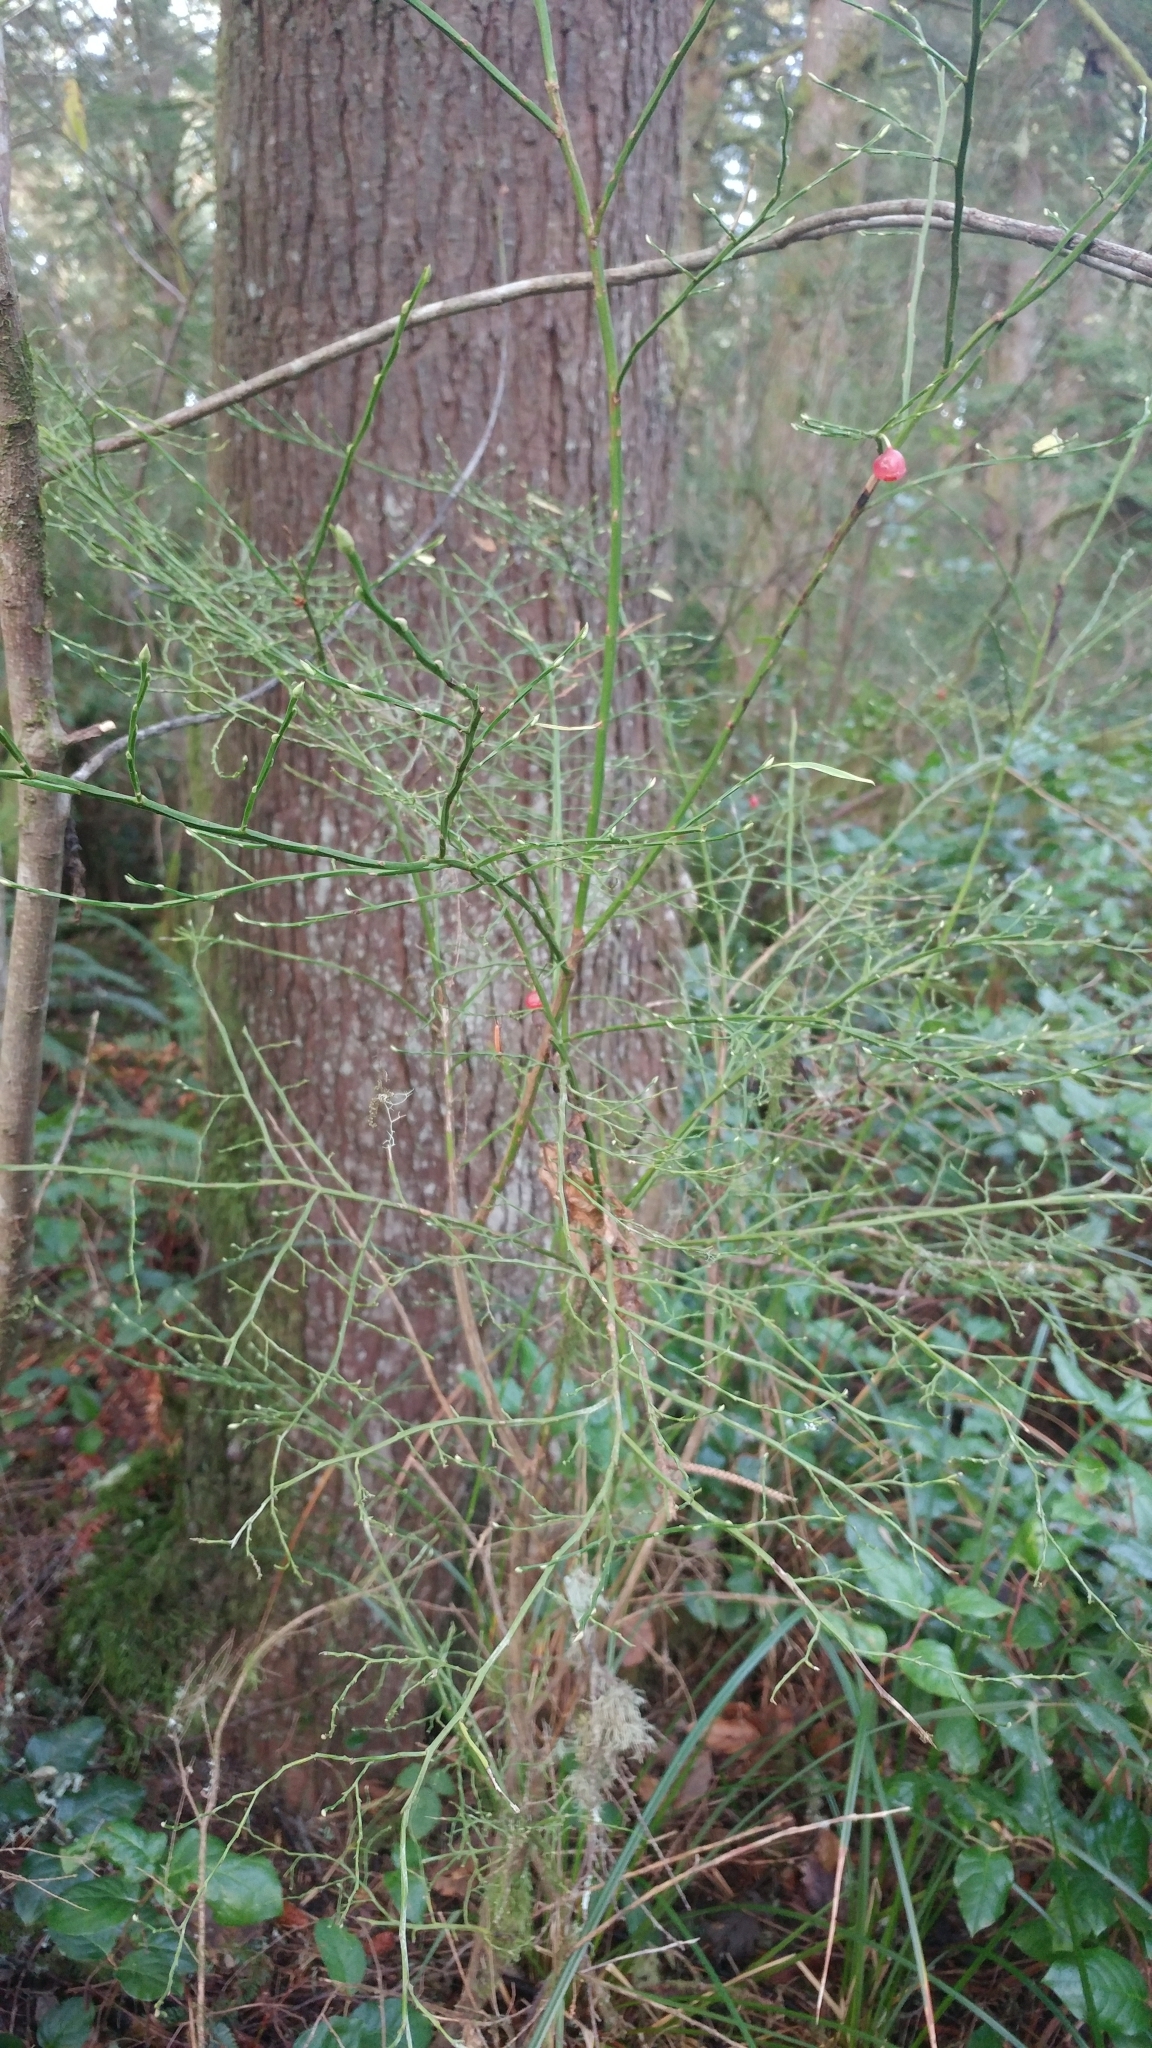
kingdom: Plantae
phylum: Tracheophyta
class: Magnoliopsida
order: Ericales
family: Ericaceae
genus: Vaccinium
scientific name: Vaccinium parvifolium
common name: Red-huckleberry
